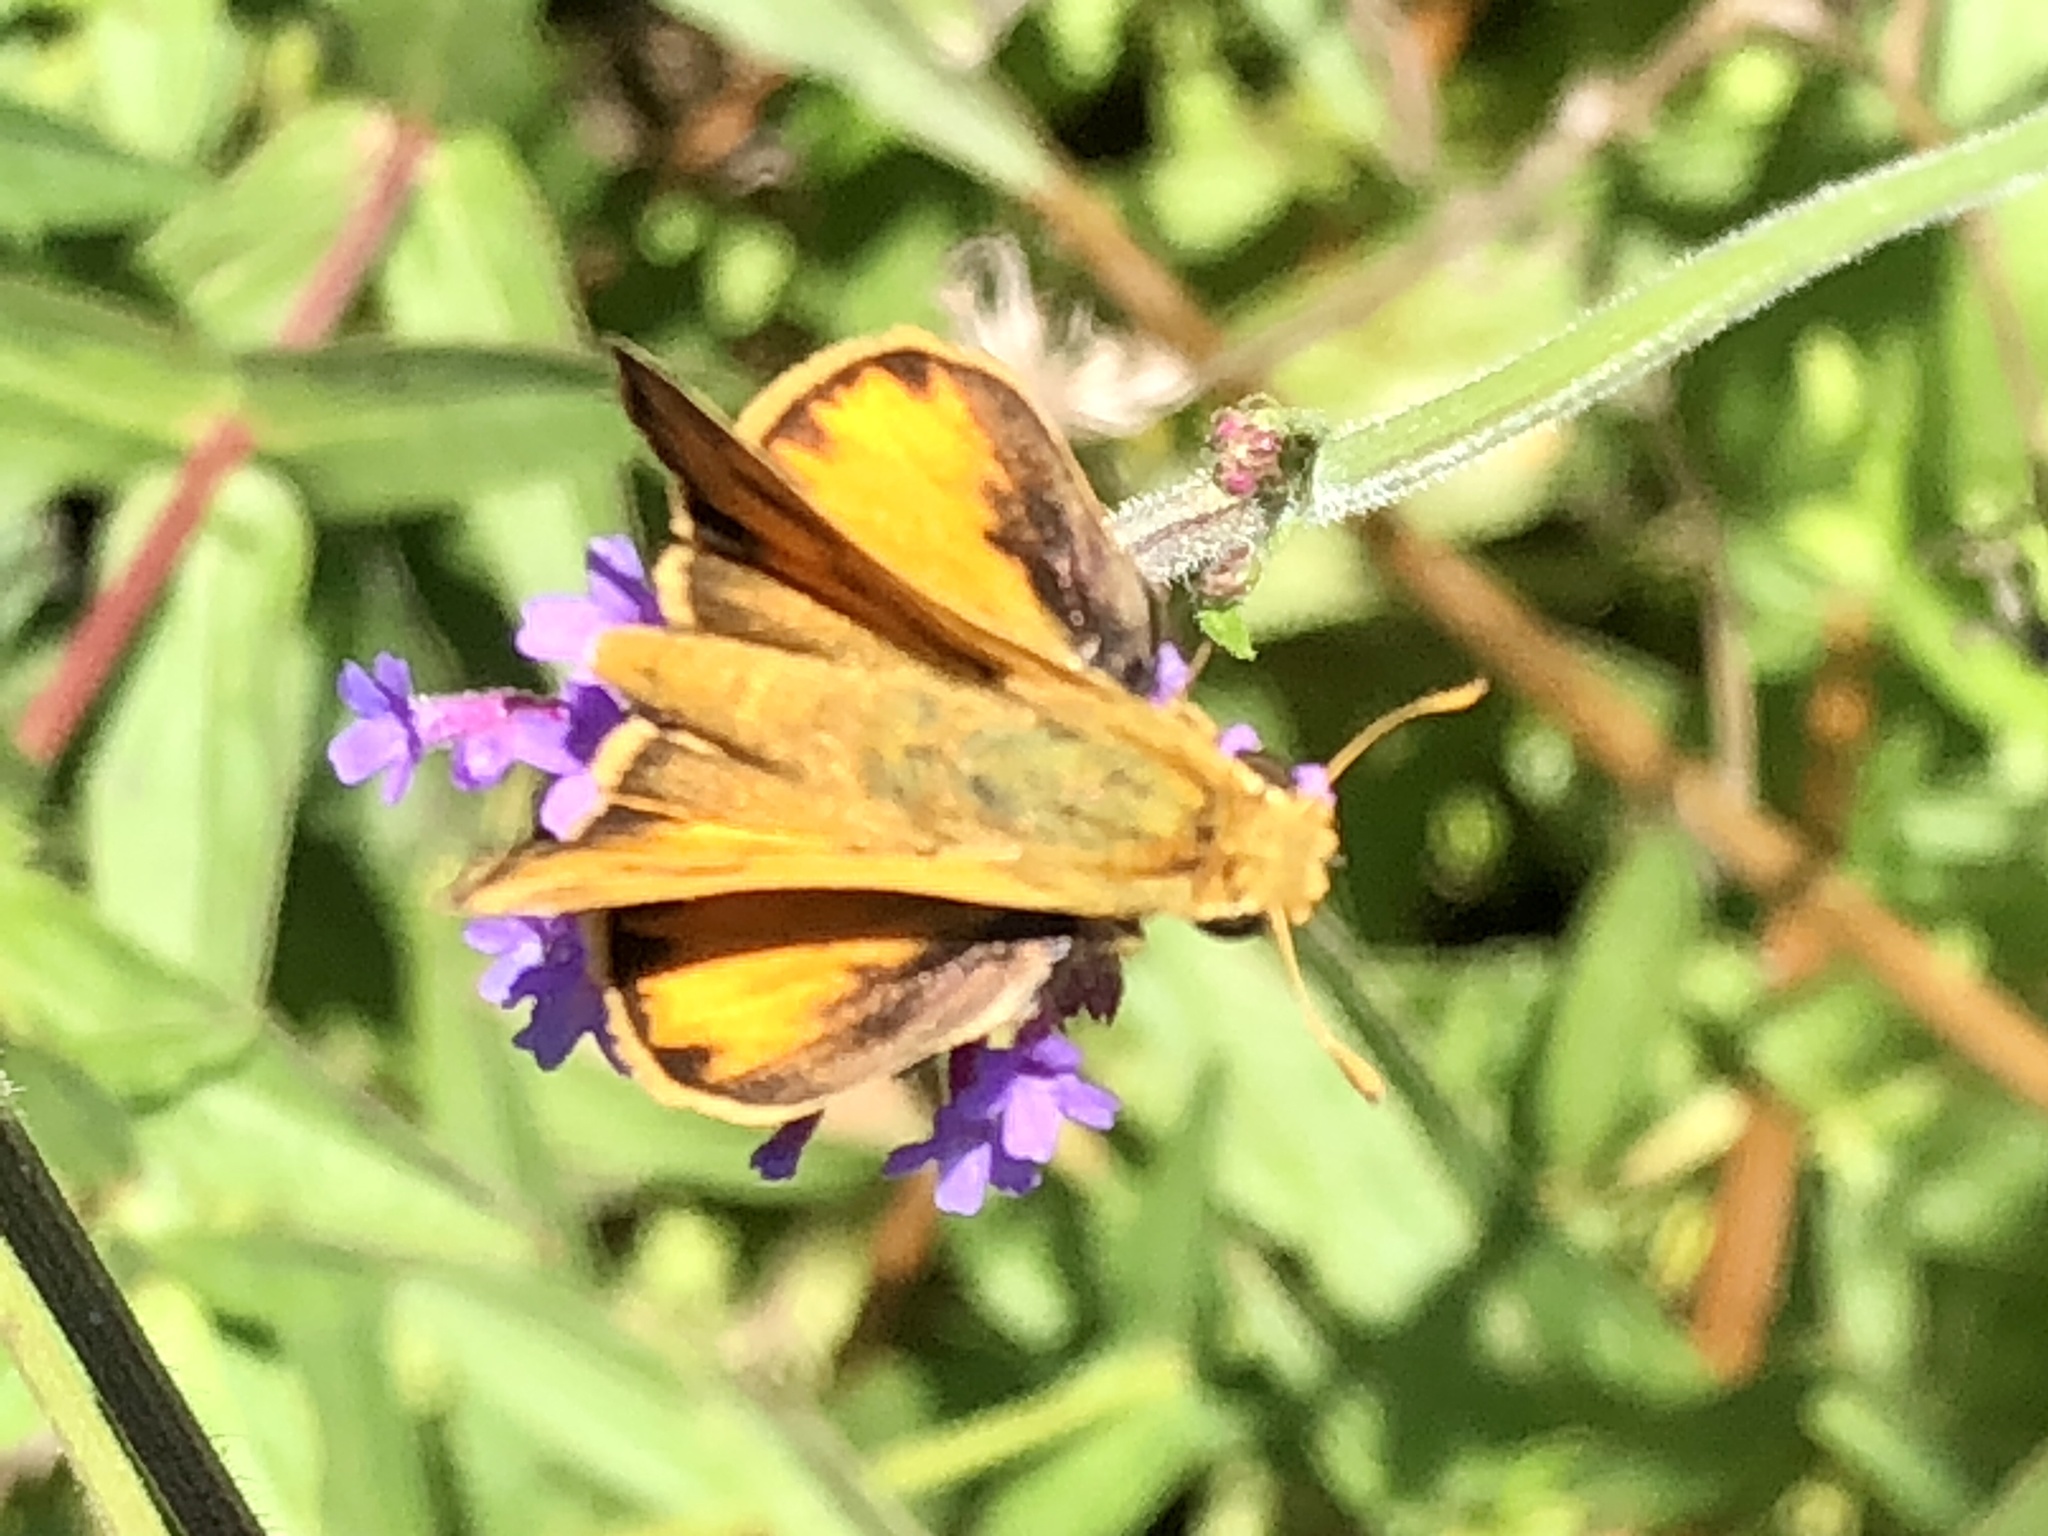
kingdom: Animalia
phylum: Arthropoda
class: Insecta
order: Lepidoptera
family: Hesperiidae
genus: Hylephila
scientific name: Hylephila phyleus
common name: Fiery skipper
